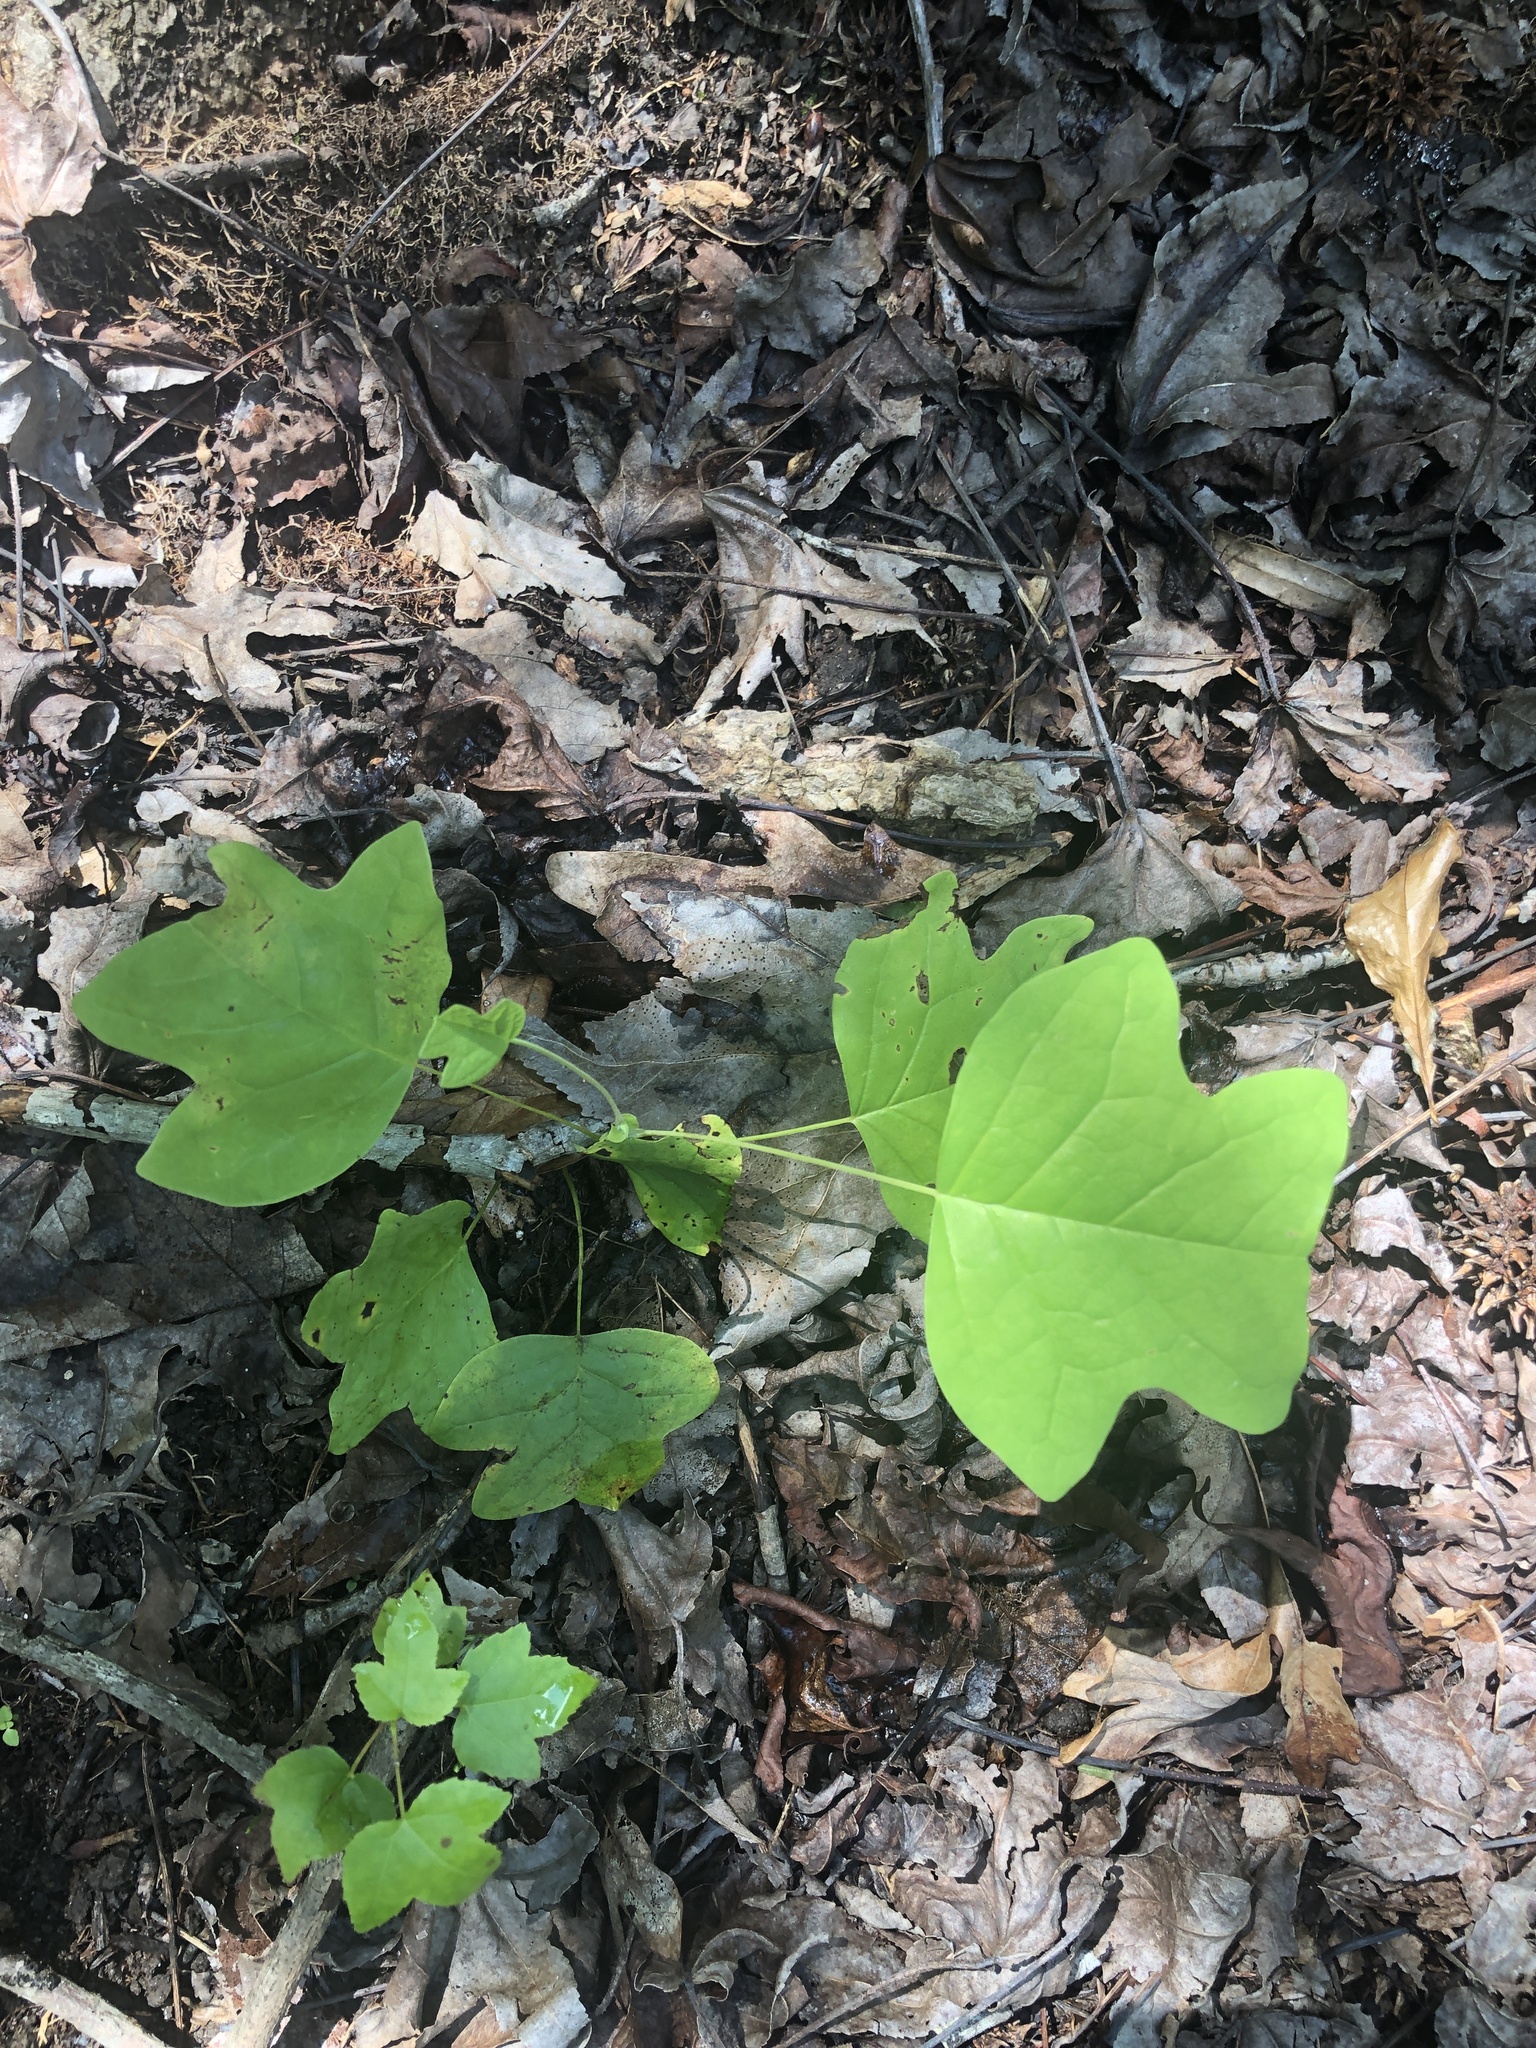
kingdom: Plantae
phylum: Tracheophyta
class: Magnoliopsida
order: Magnoliales
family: Magnoliaceae
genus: Liriodendron
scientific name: Liriodendron tulipifera
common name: Tulip tree
